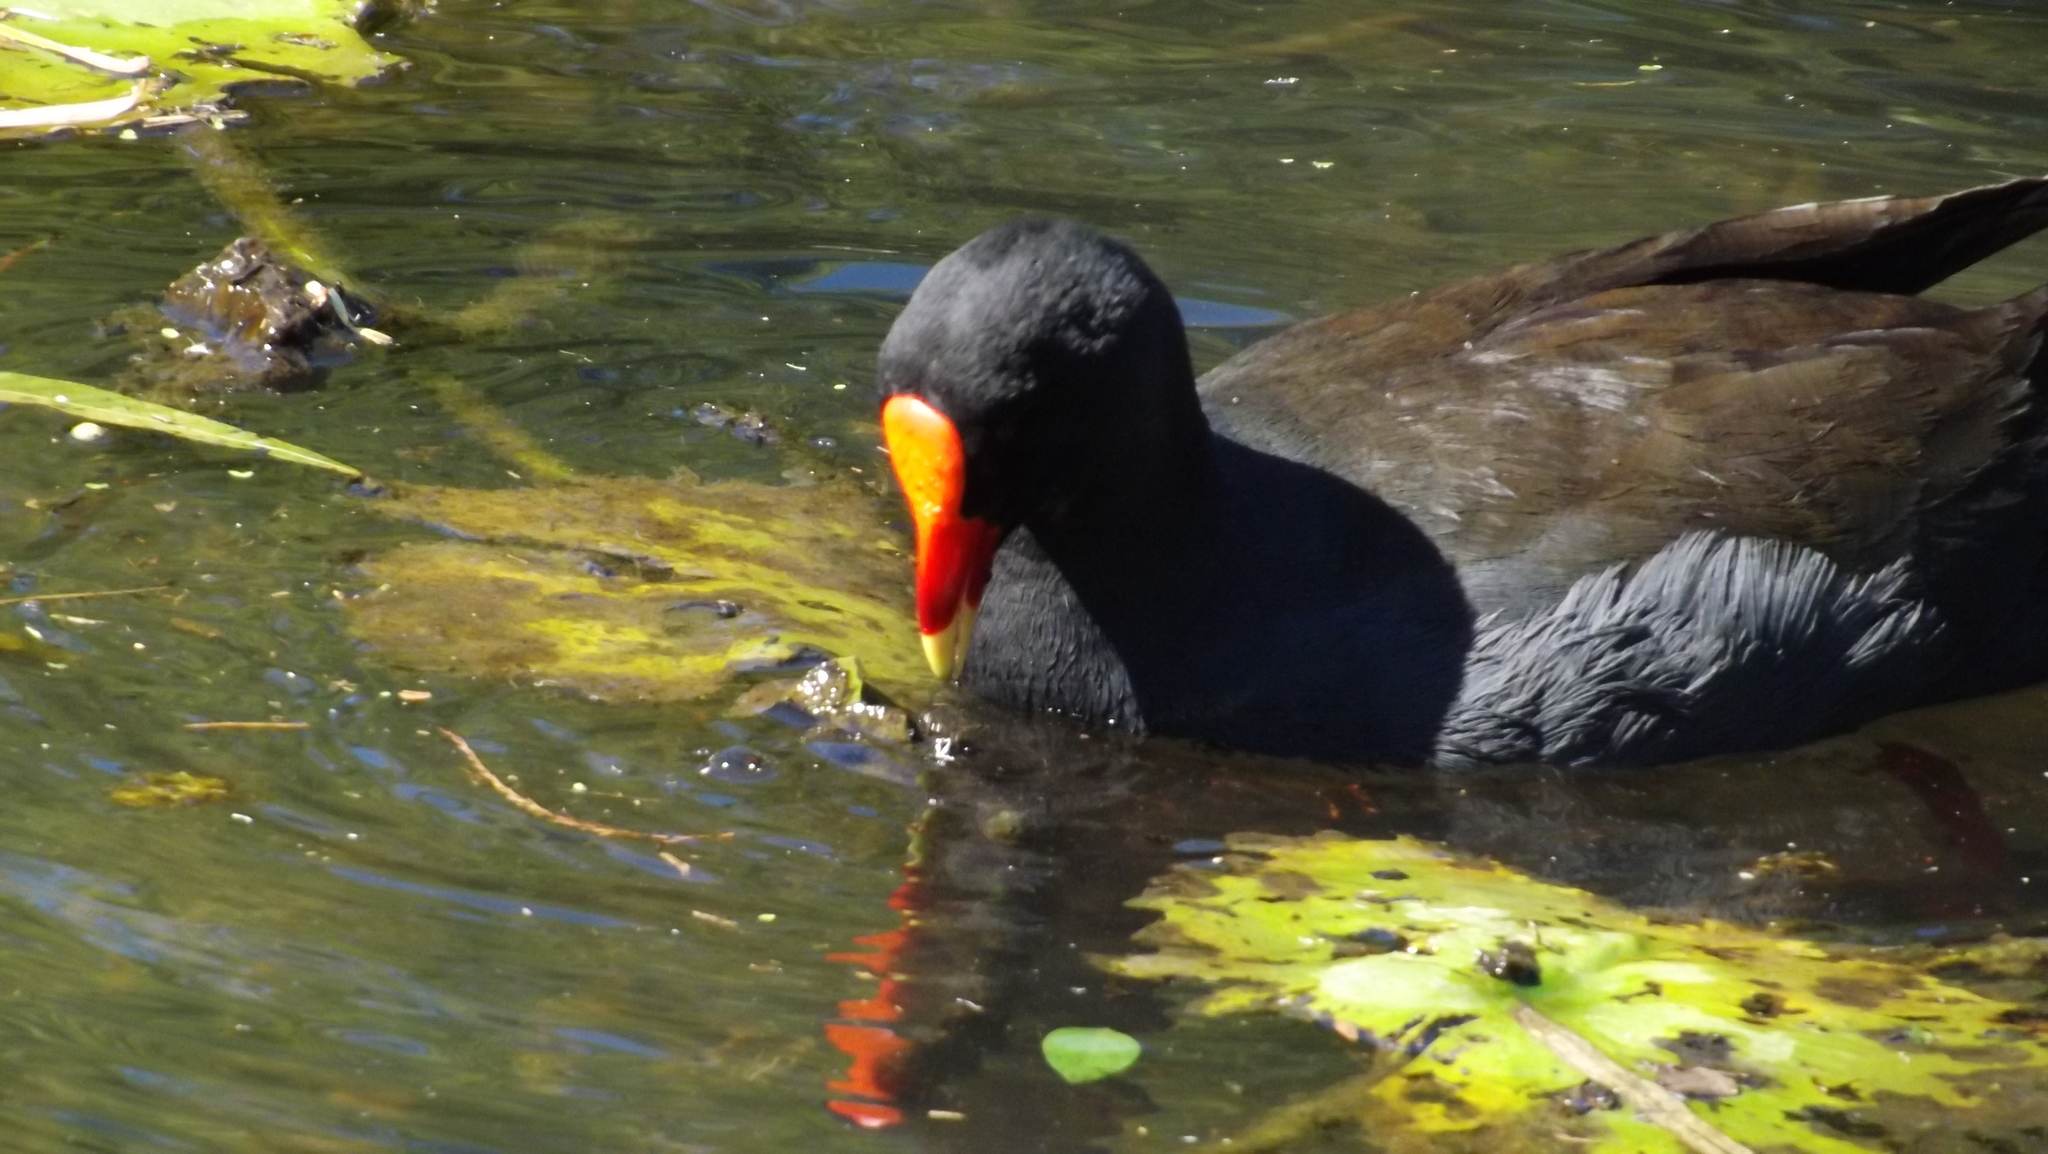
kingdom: Animalia
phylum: Chordata
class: Aves
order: Gruiformes
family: Rallidae
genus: Gallinula
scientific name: Gallinula tenebrosa
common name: Dusky moorhen
